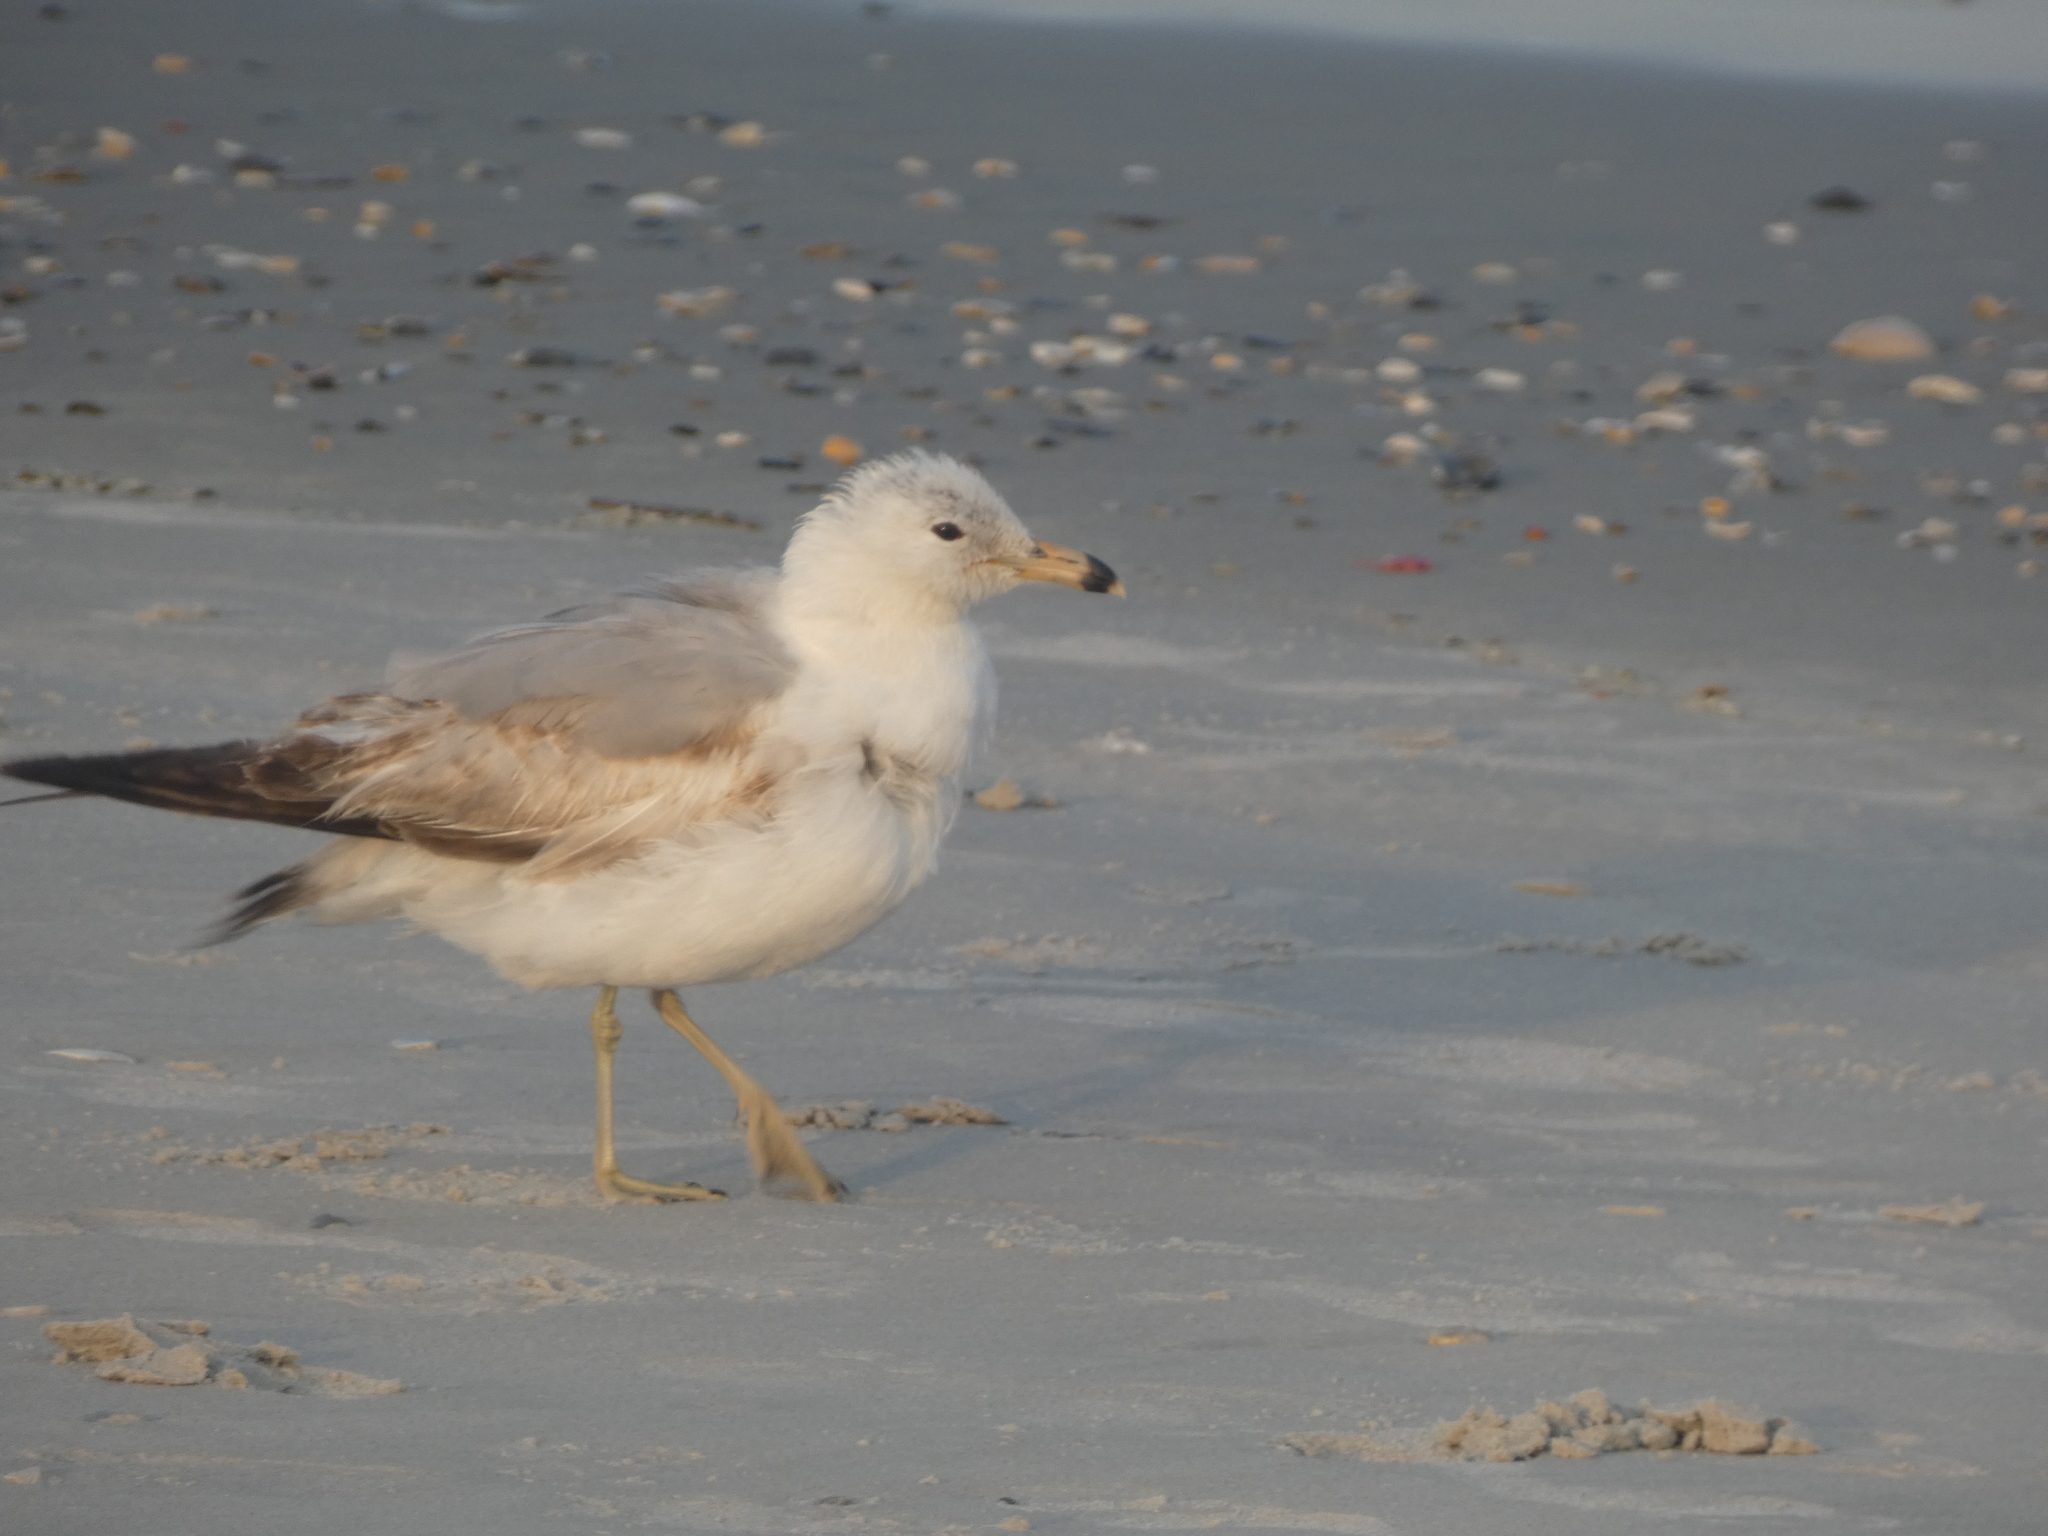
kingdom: Animalia
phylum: Chordata
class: Aves
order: Charadriiformes
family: Laridae
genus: Larus
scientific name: Larus delawarensis
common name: Ring-billed gull
